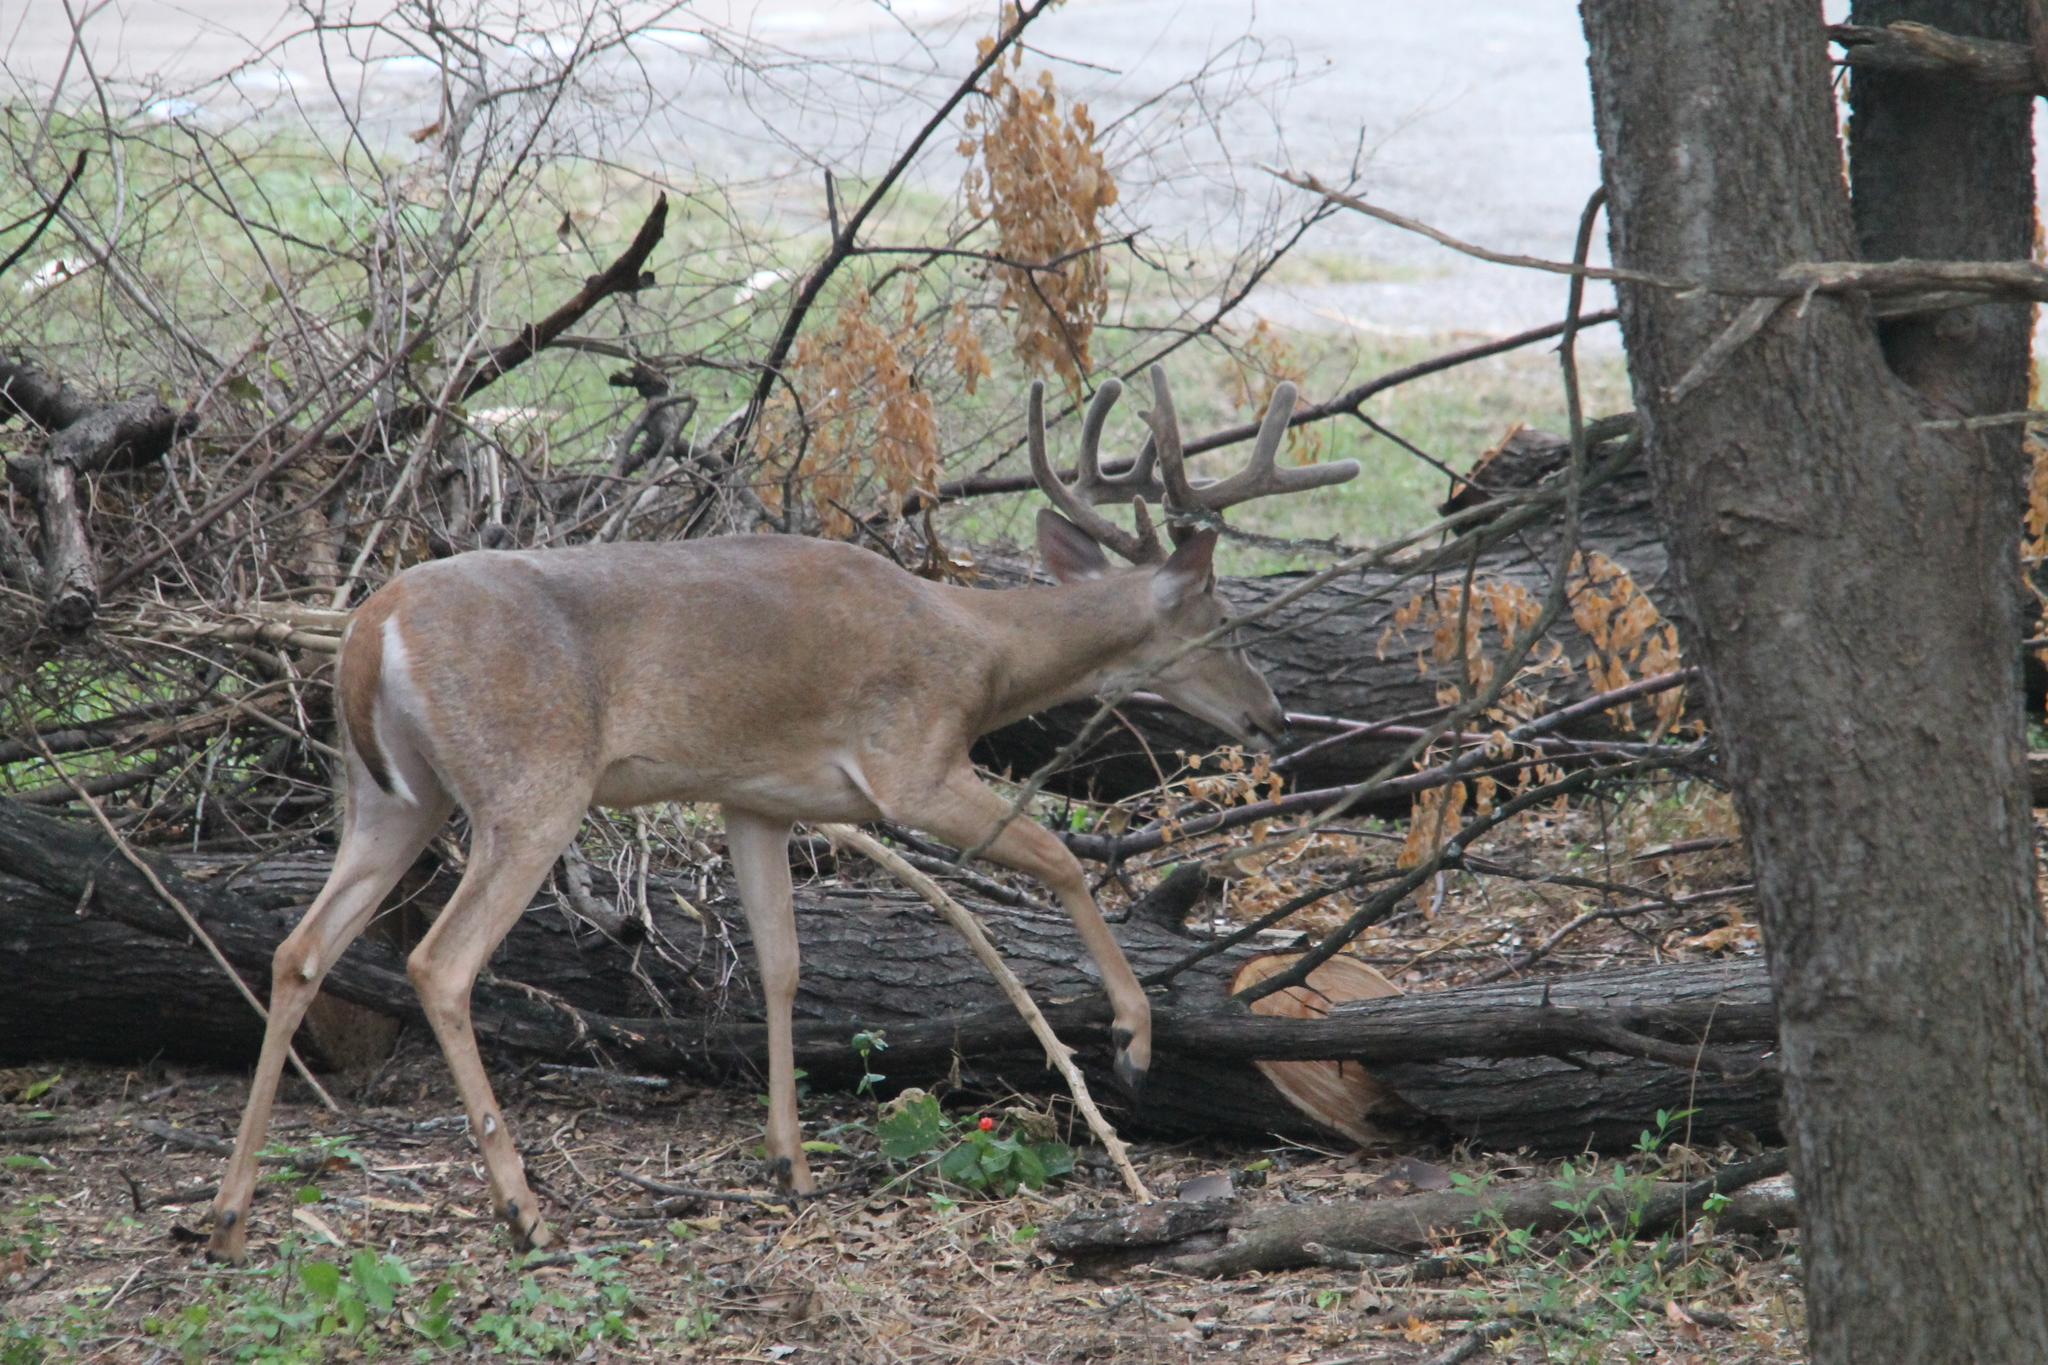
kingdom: Animalia
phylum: Chordata
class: Mammalia
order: Artiodactyla
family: Cervidae
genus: Odocoileus
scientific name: Odocoileus virginianus
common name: White-tailed deer
